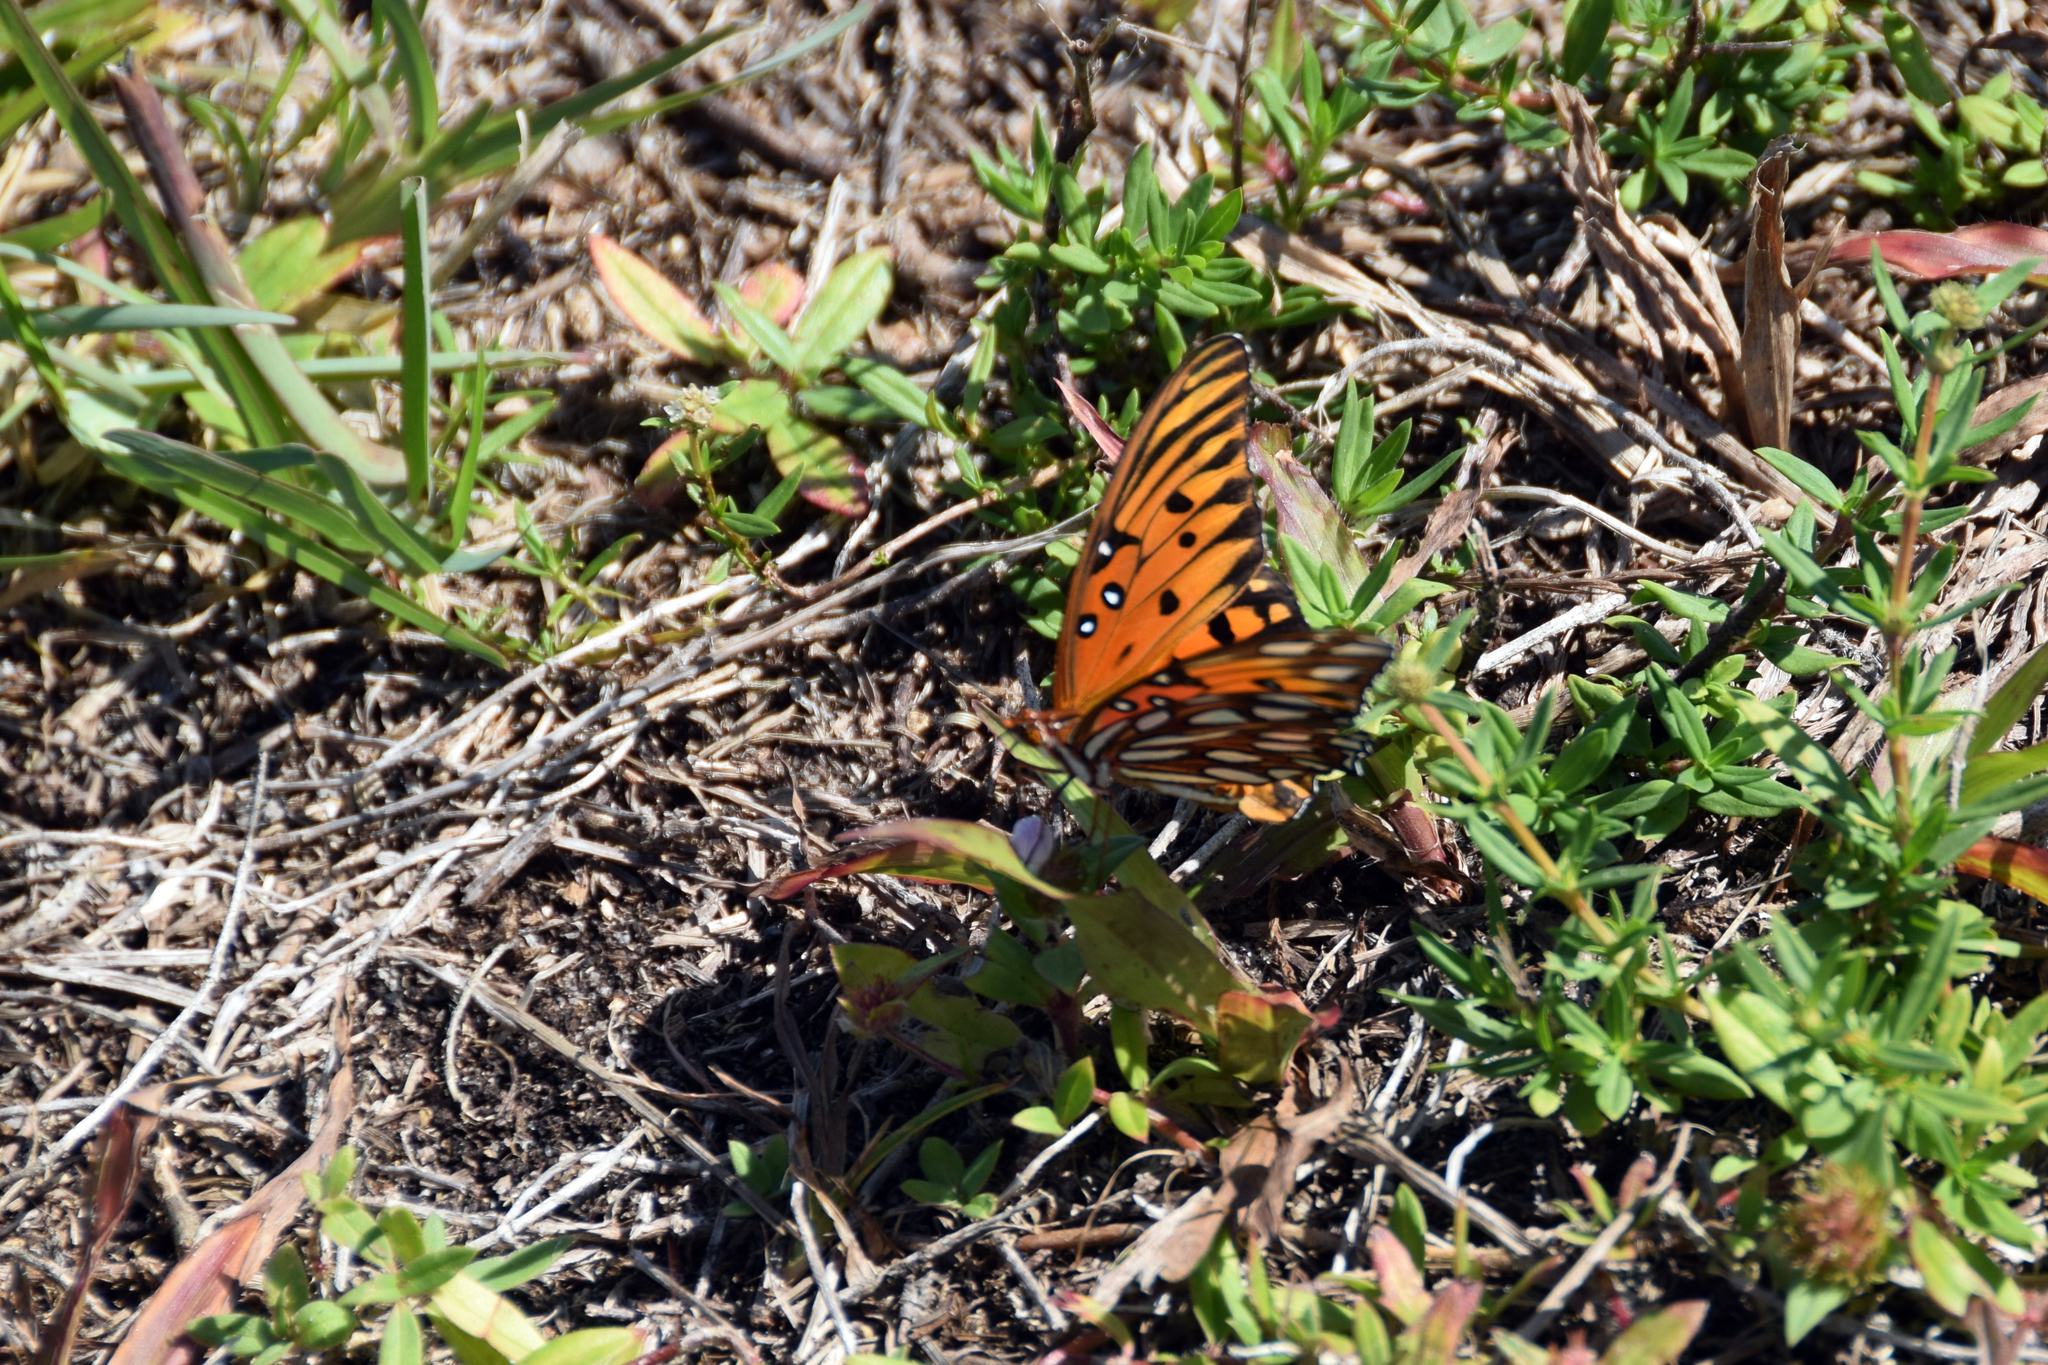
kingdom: Animalia
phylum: Arthropoda
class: Insecta
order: Lepidoptera
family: Nymphalidae
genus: Dione
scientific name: Dione vanillae
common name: Gulf fritillary
